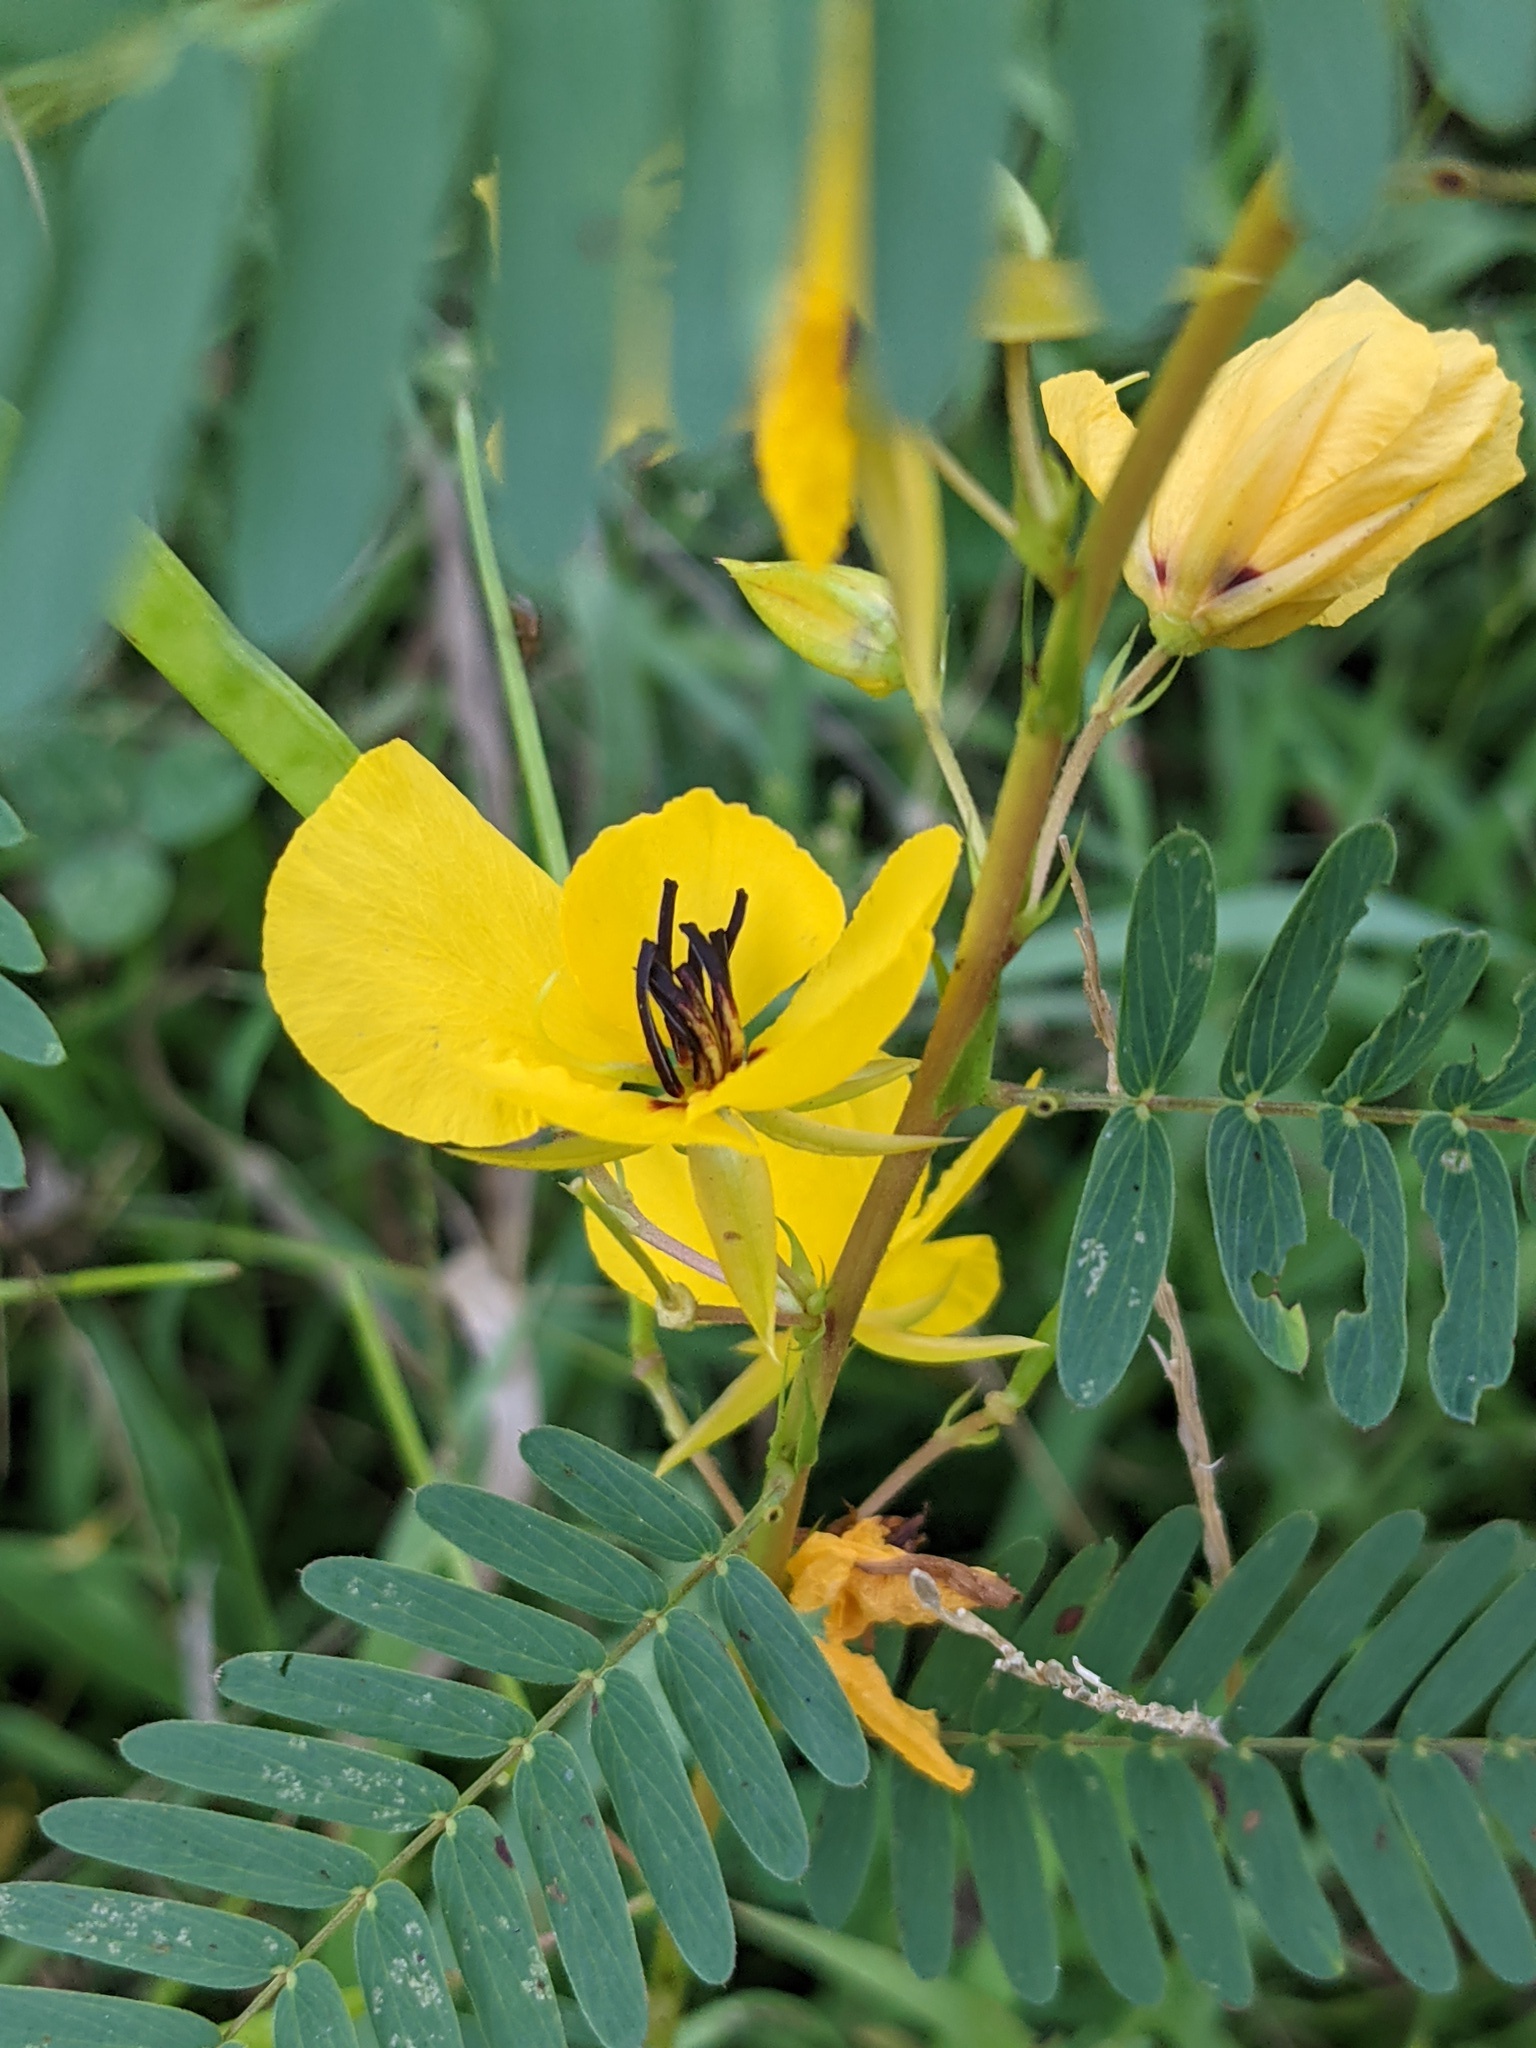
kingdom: Plantae
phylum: Tracheophyta
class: Magnoliopsida
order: Fabales
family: Fabaceae
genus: Chamaecrista
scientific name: Chamaecrista fasciculata
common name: Golden cassia
